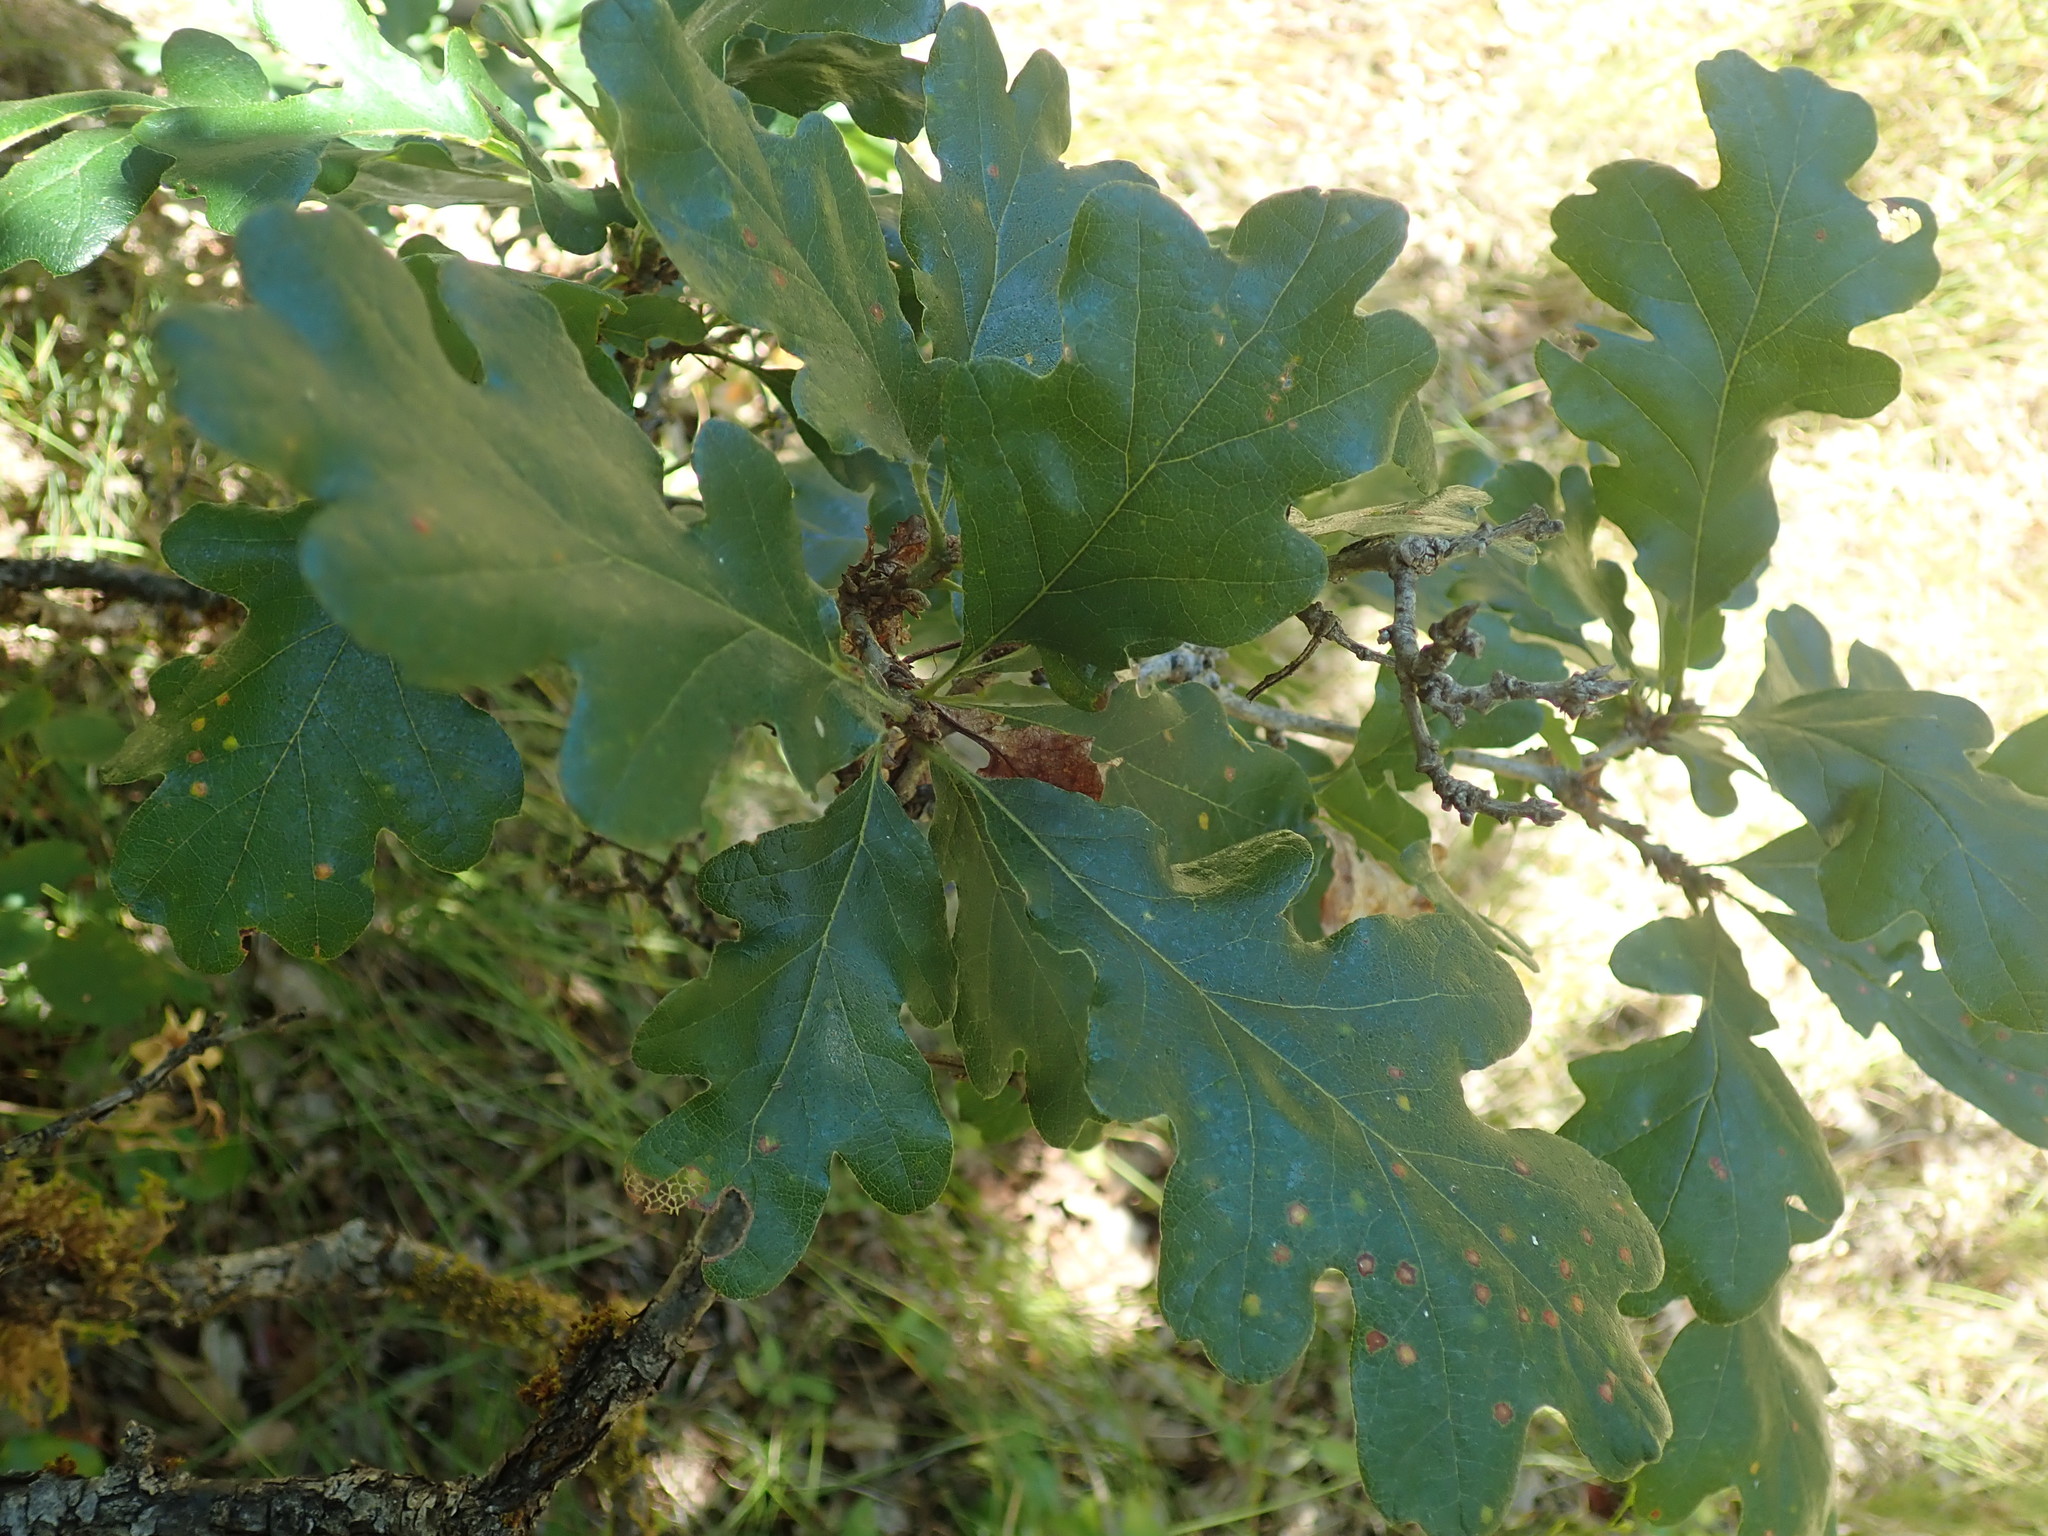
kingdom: Plantae
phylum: Tracheophyta
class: Magnoliopsida
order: Fagales
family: Fagaceae
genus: Quercus
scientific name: Quercus garryana
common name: Garry oak
